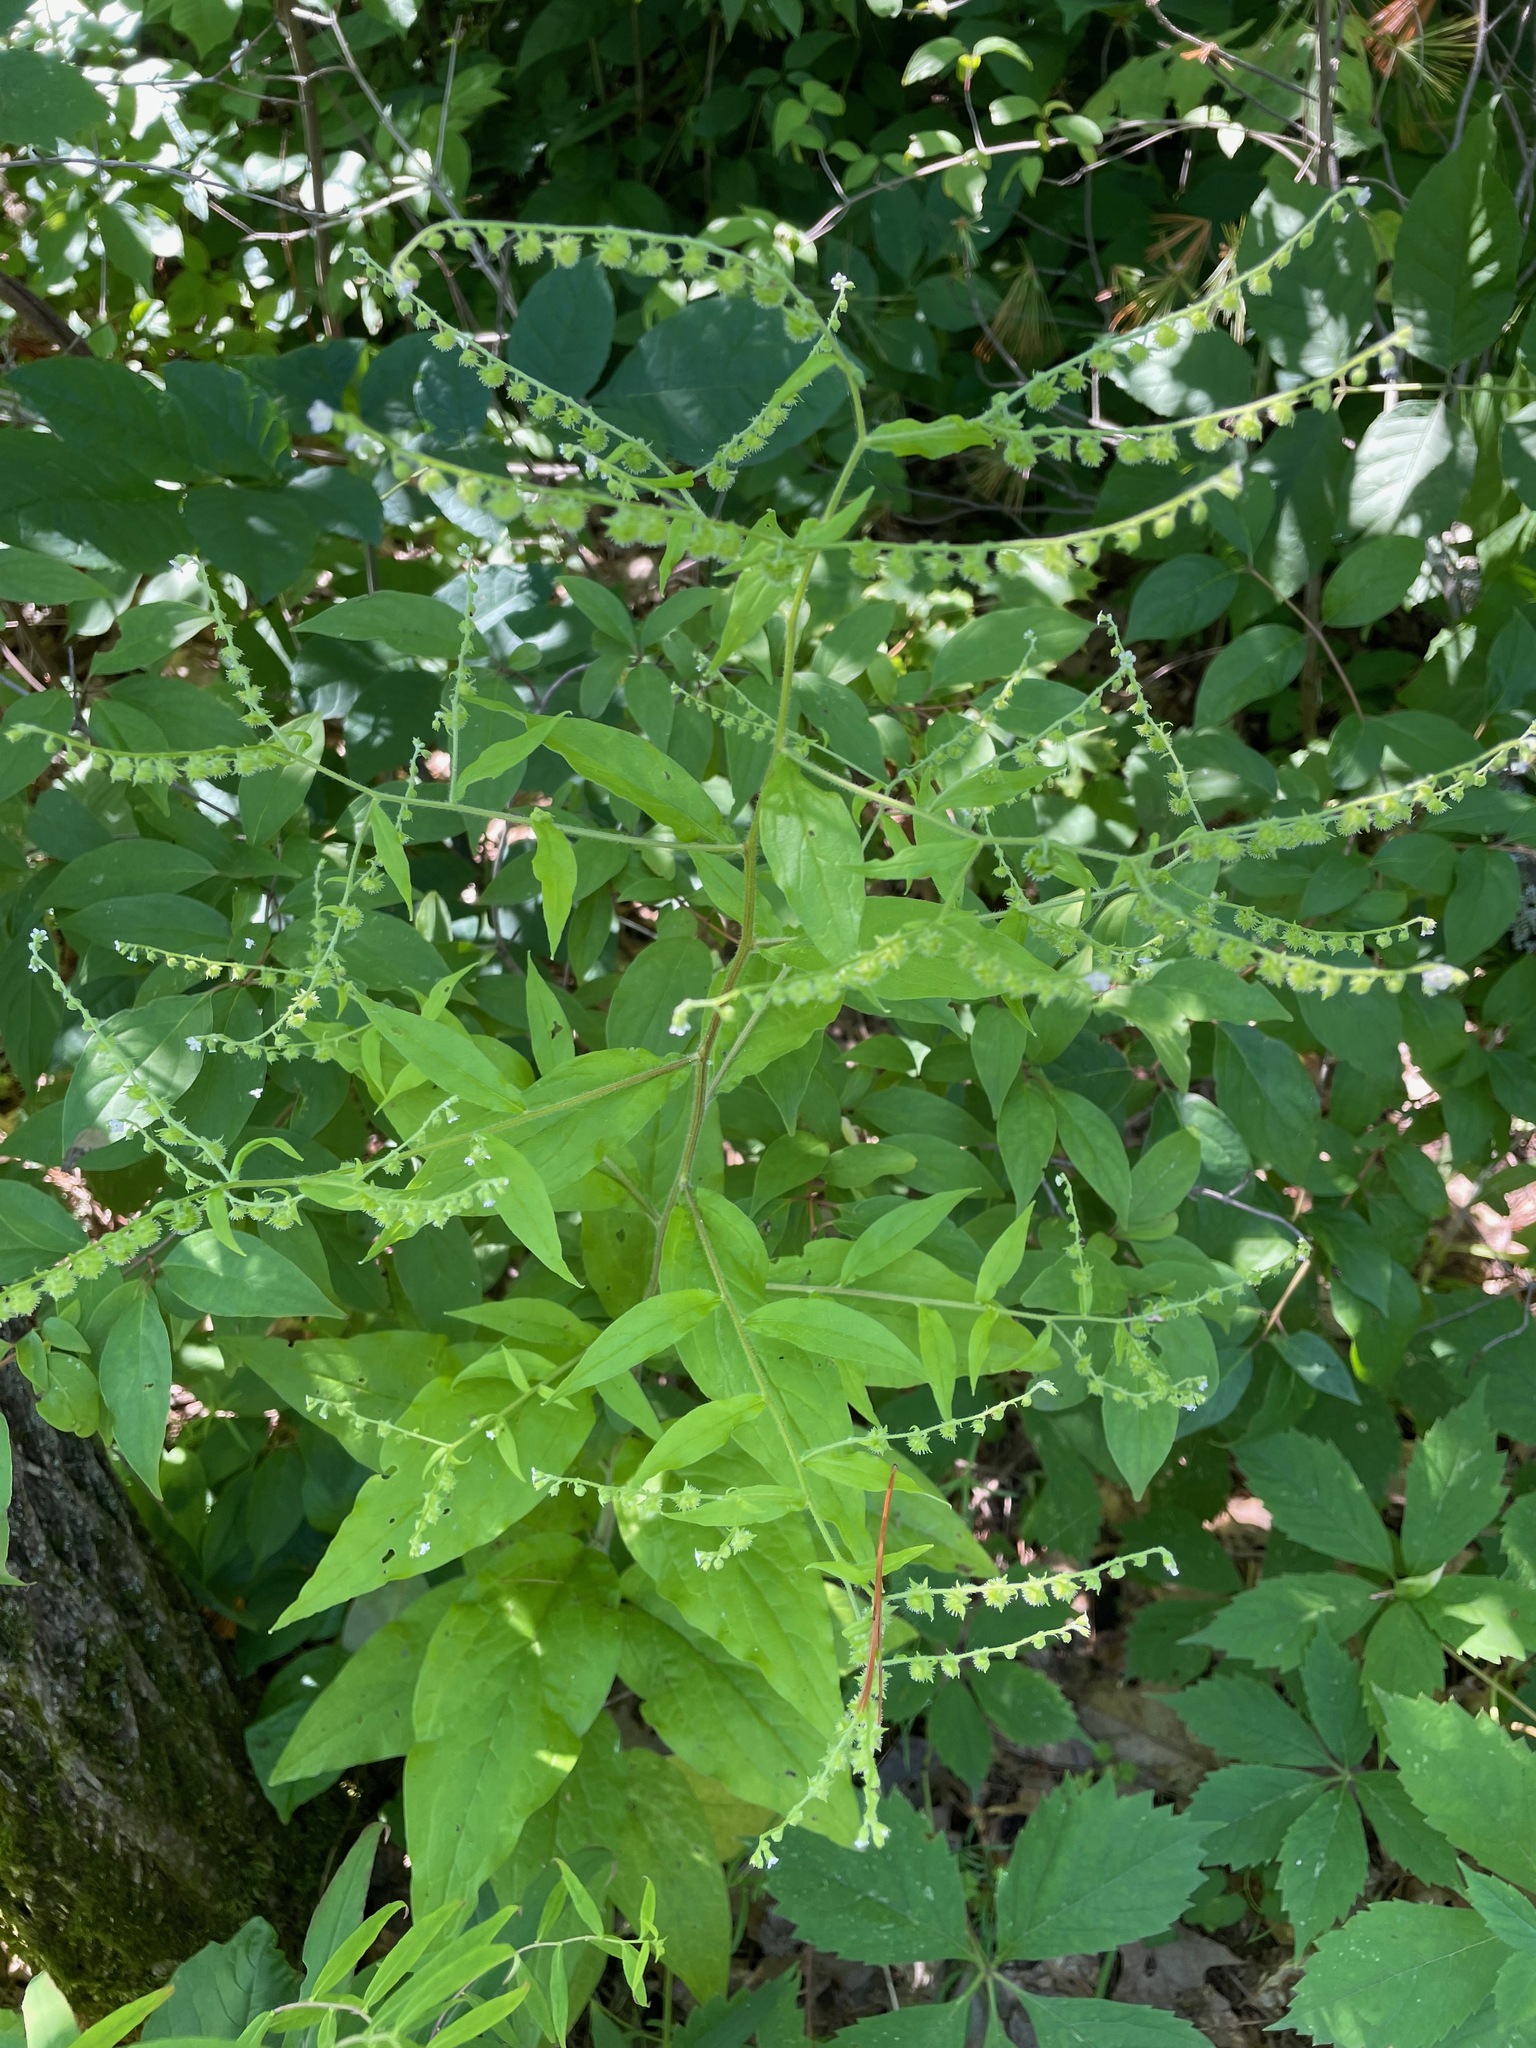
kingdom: Plantae
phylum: Tracheophyta
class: Magnoliopsida
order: Boraginales
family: Boraginaceae
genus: Hackelia
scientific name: Hackelia virginiana
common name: Beggar's-lice
